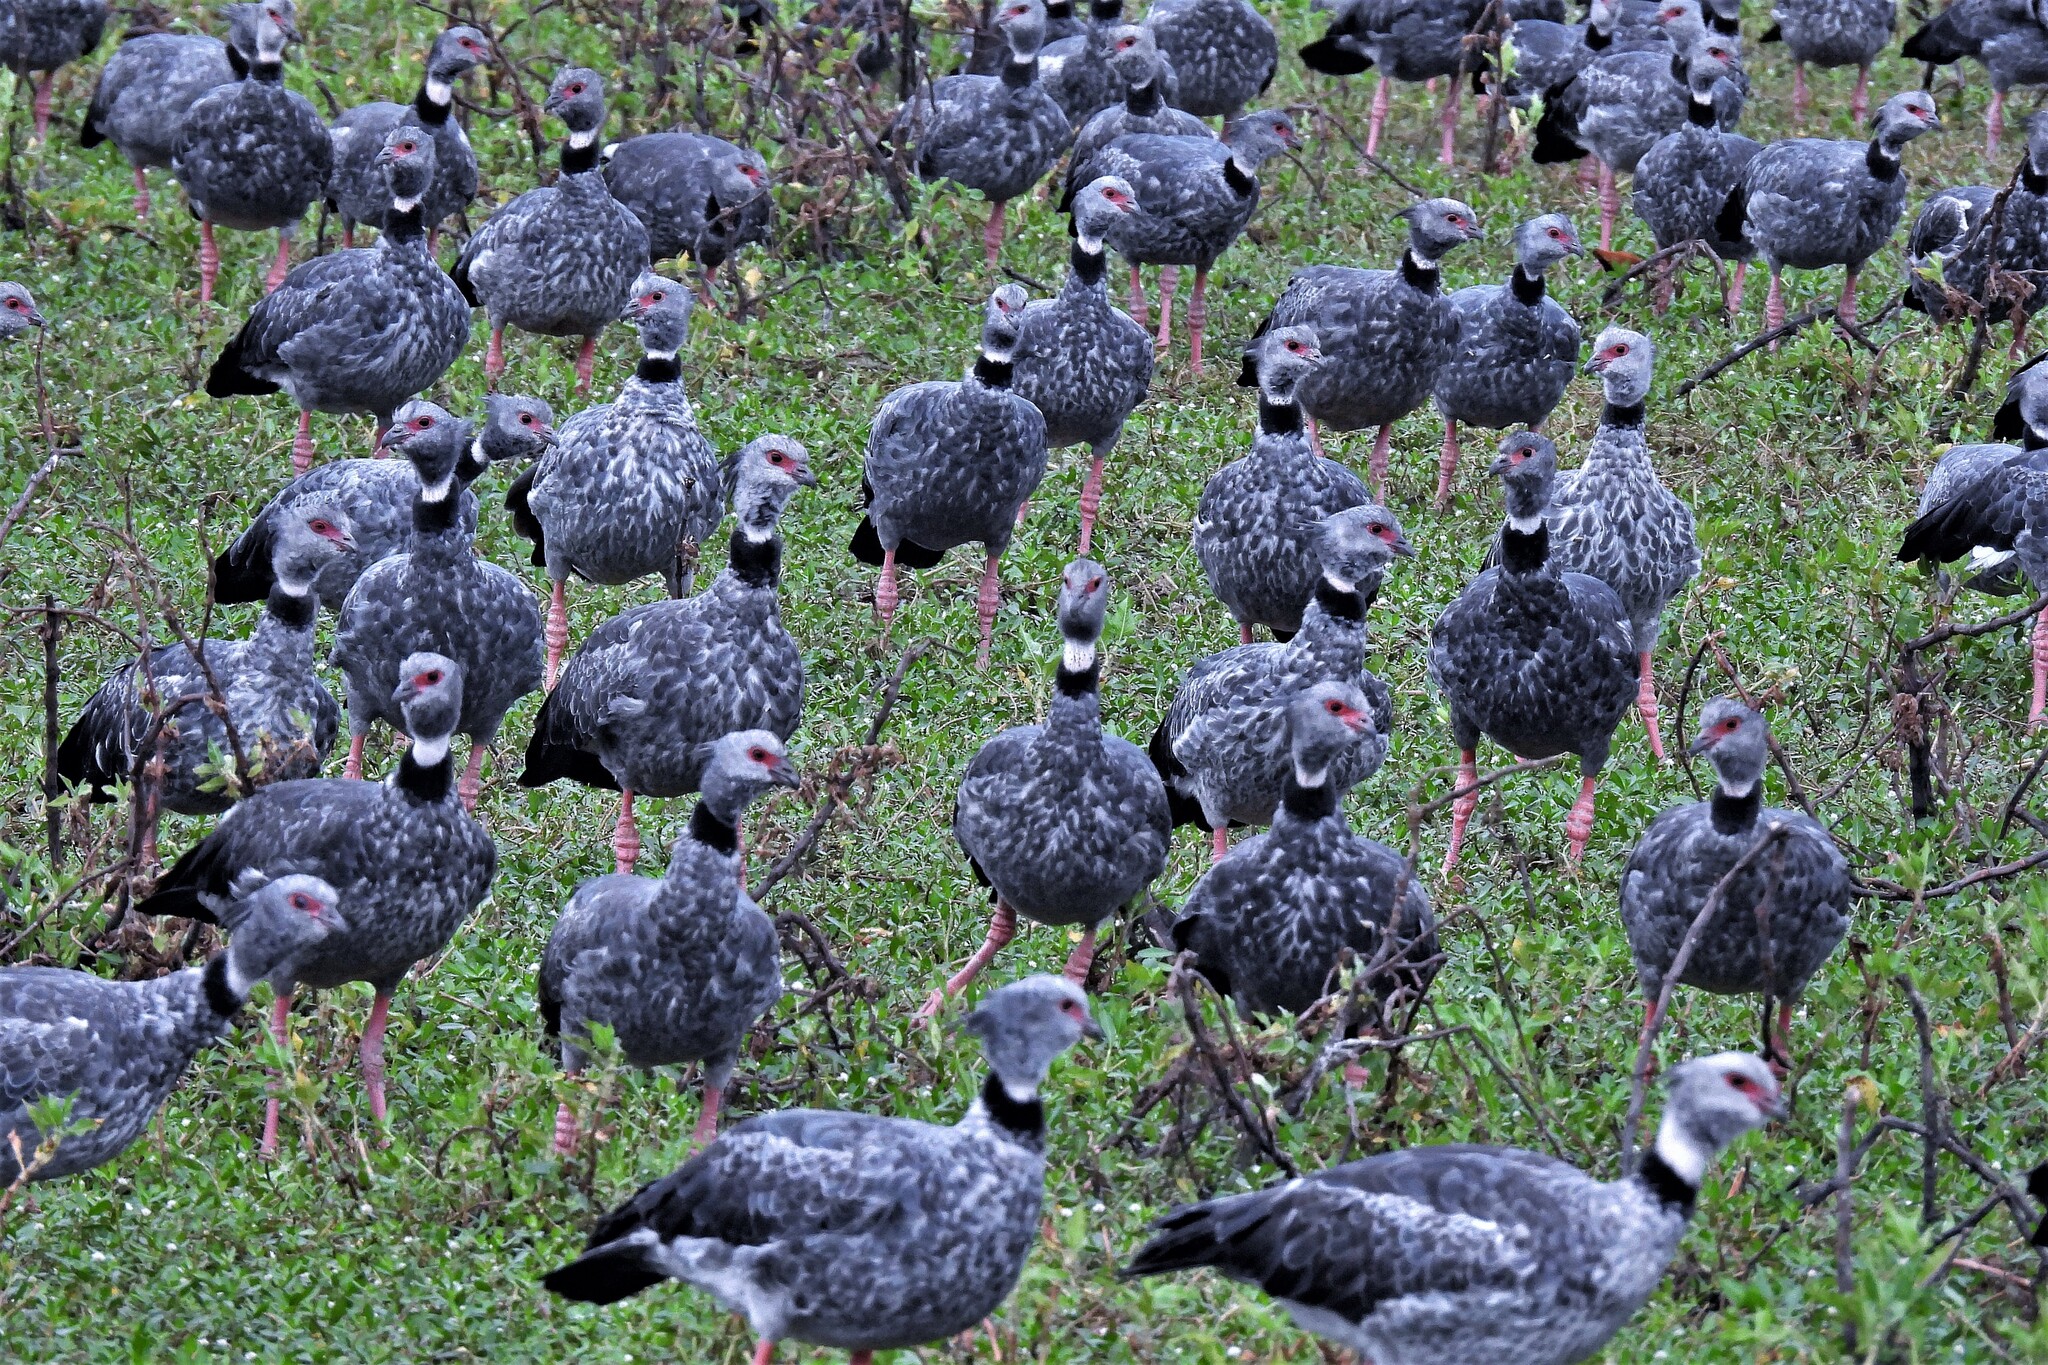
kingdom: Animalia
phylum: Chordata
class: Aves
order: Anseriformes
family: Anhimidae
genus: Chauna
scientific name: Chauna torquata
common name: Southern screamer
